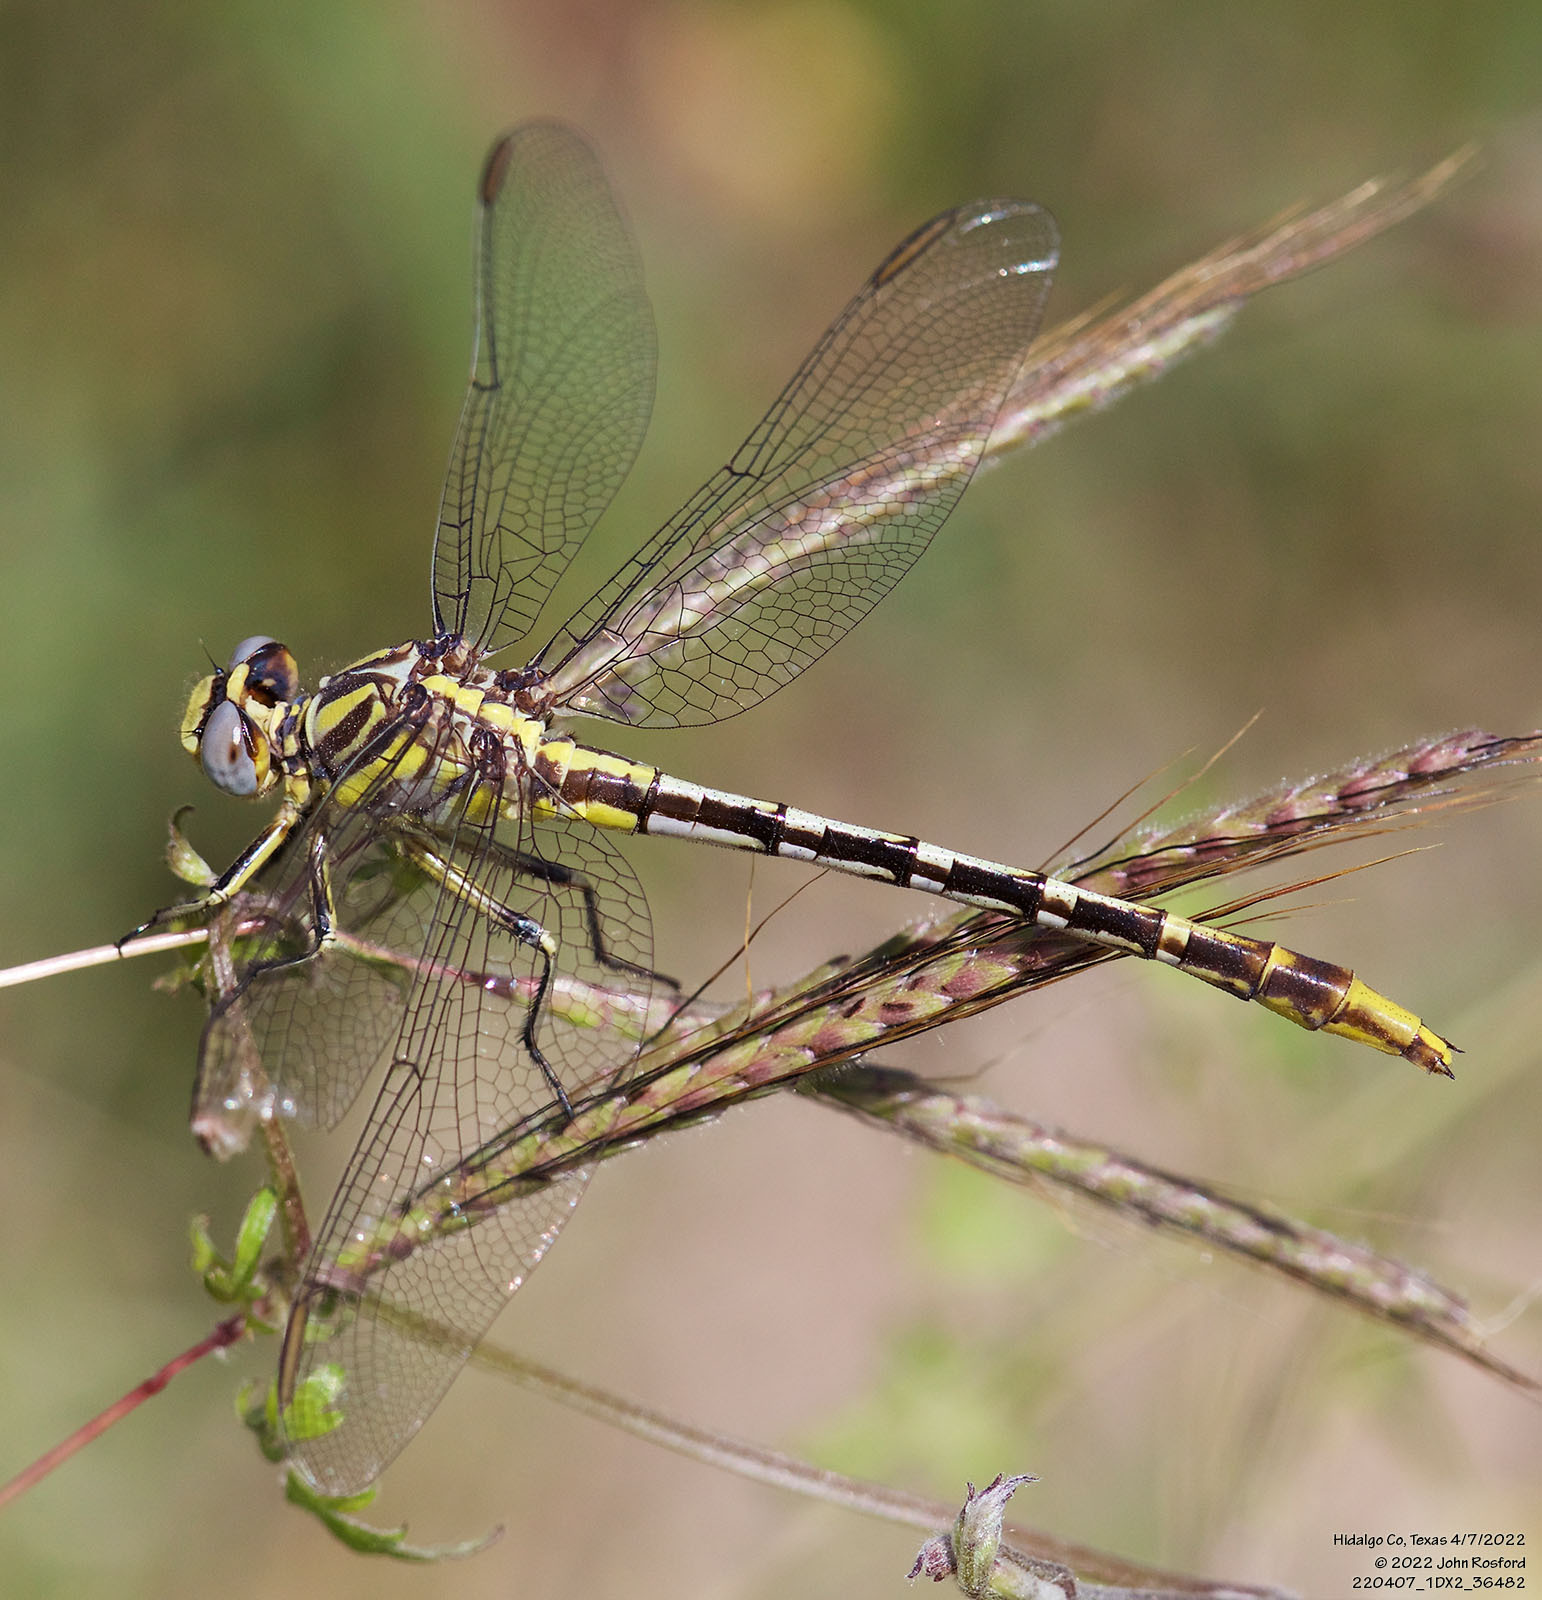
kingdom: Animalia
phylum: Arthropoda
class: Insecta
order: Odonata
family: Gomphidae
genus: Phanogomphus
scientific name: Phanogomphus militaris
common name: Sulphur-tipped clubtail
